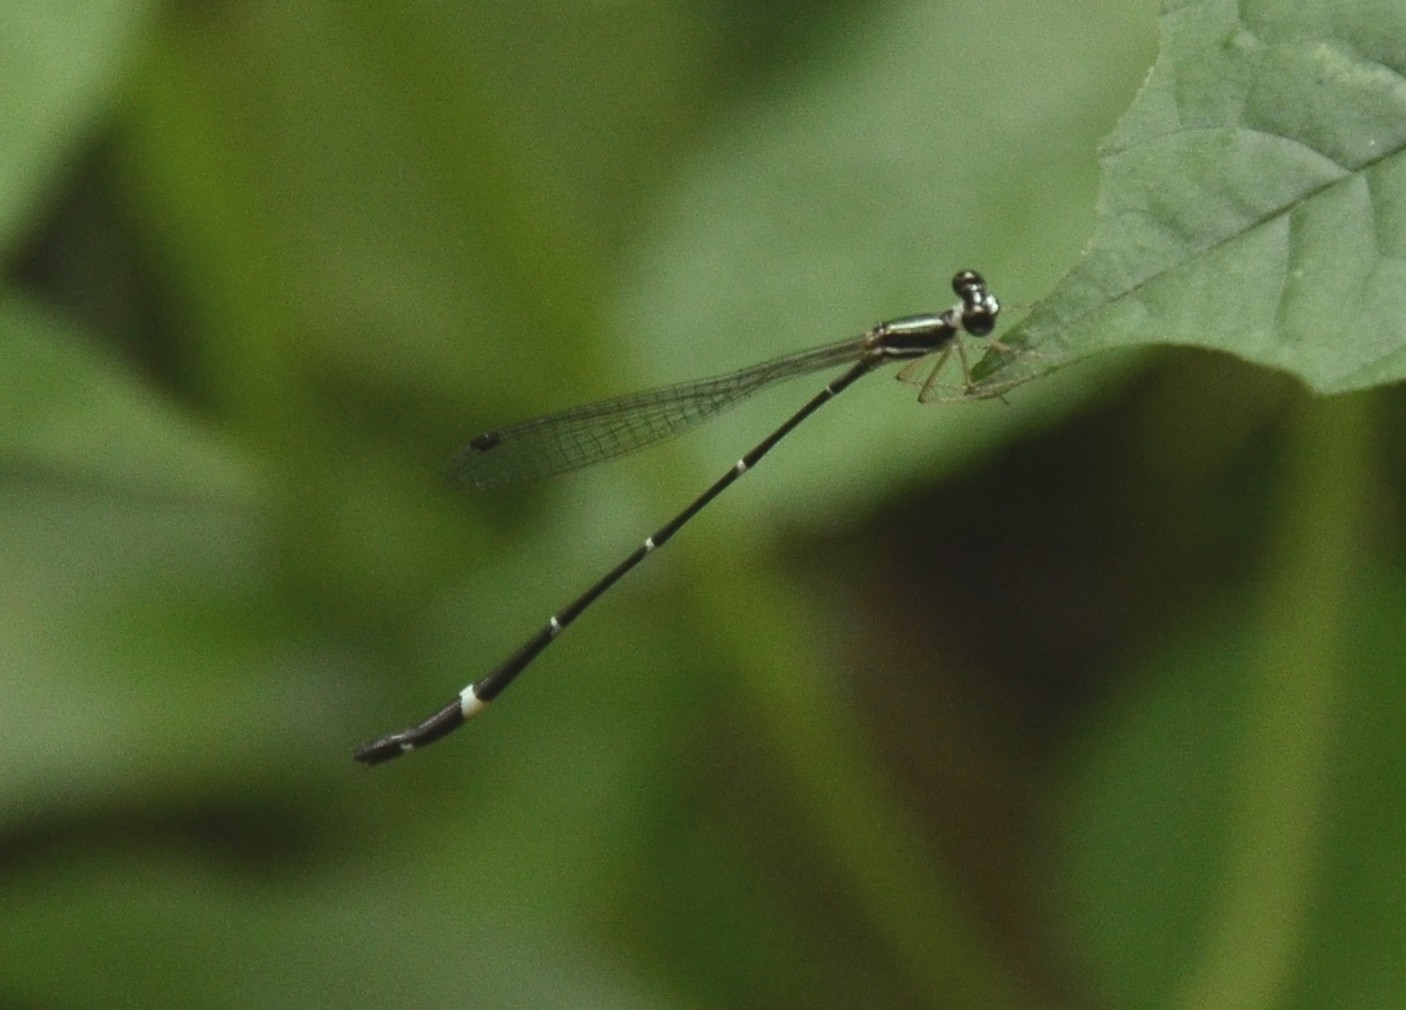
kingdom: Animalia
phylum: Arthropoda
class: Insecta
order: Odonata
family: Platystictidae
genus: Protosticta
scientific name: Protosticta gravelyi
